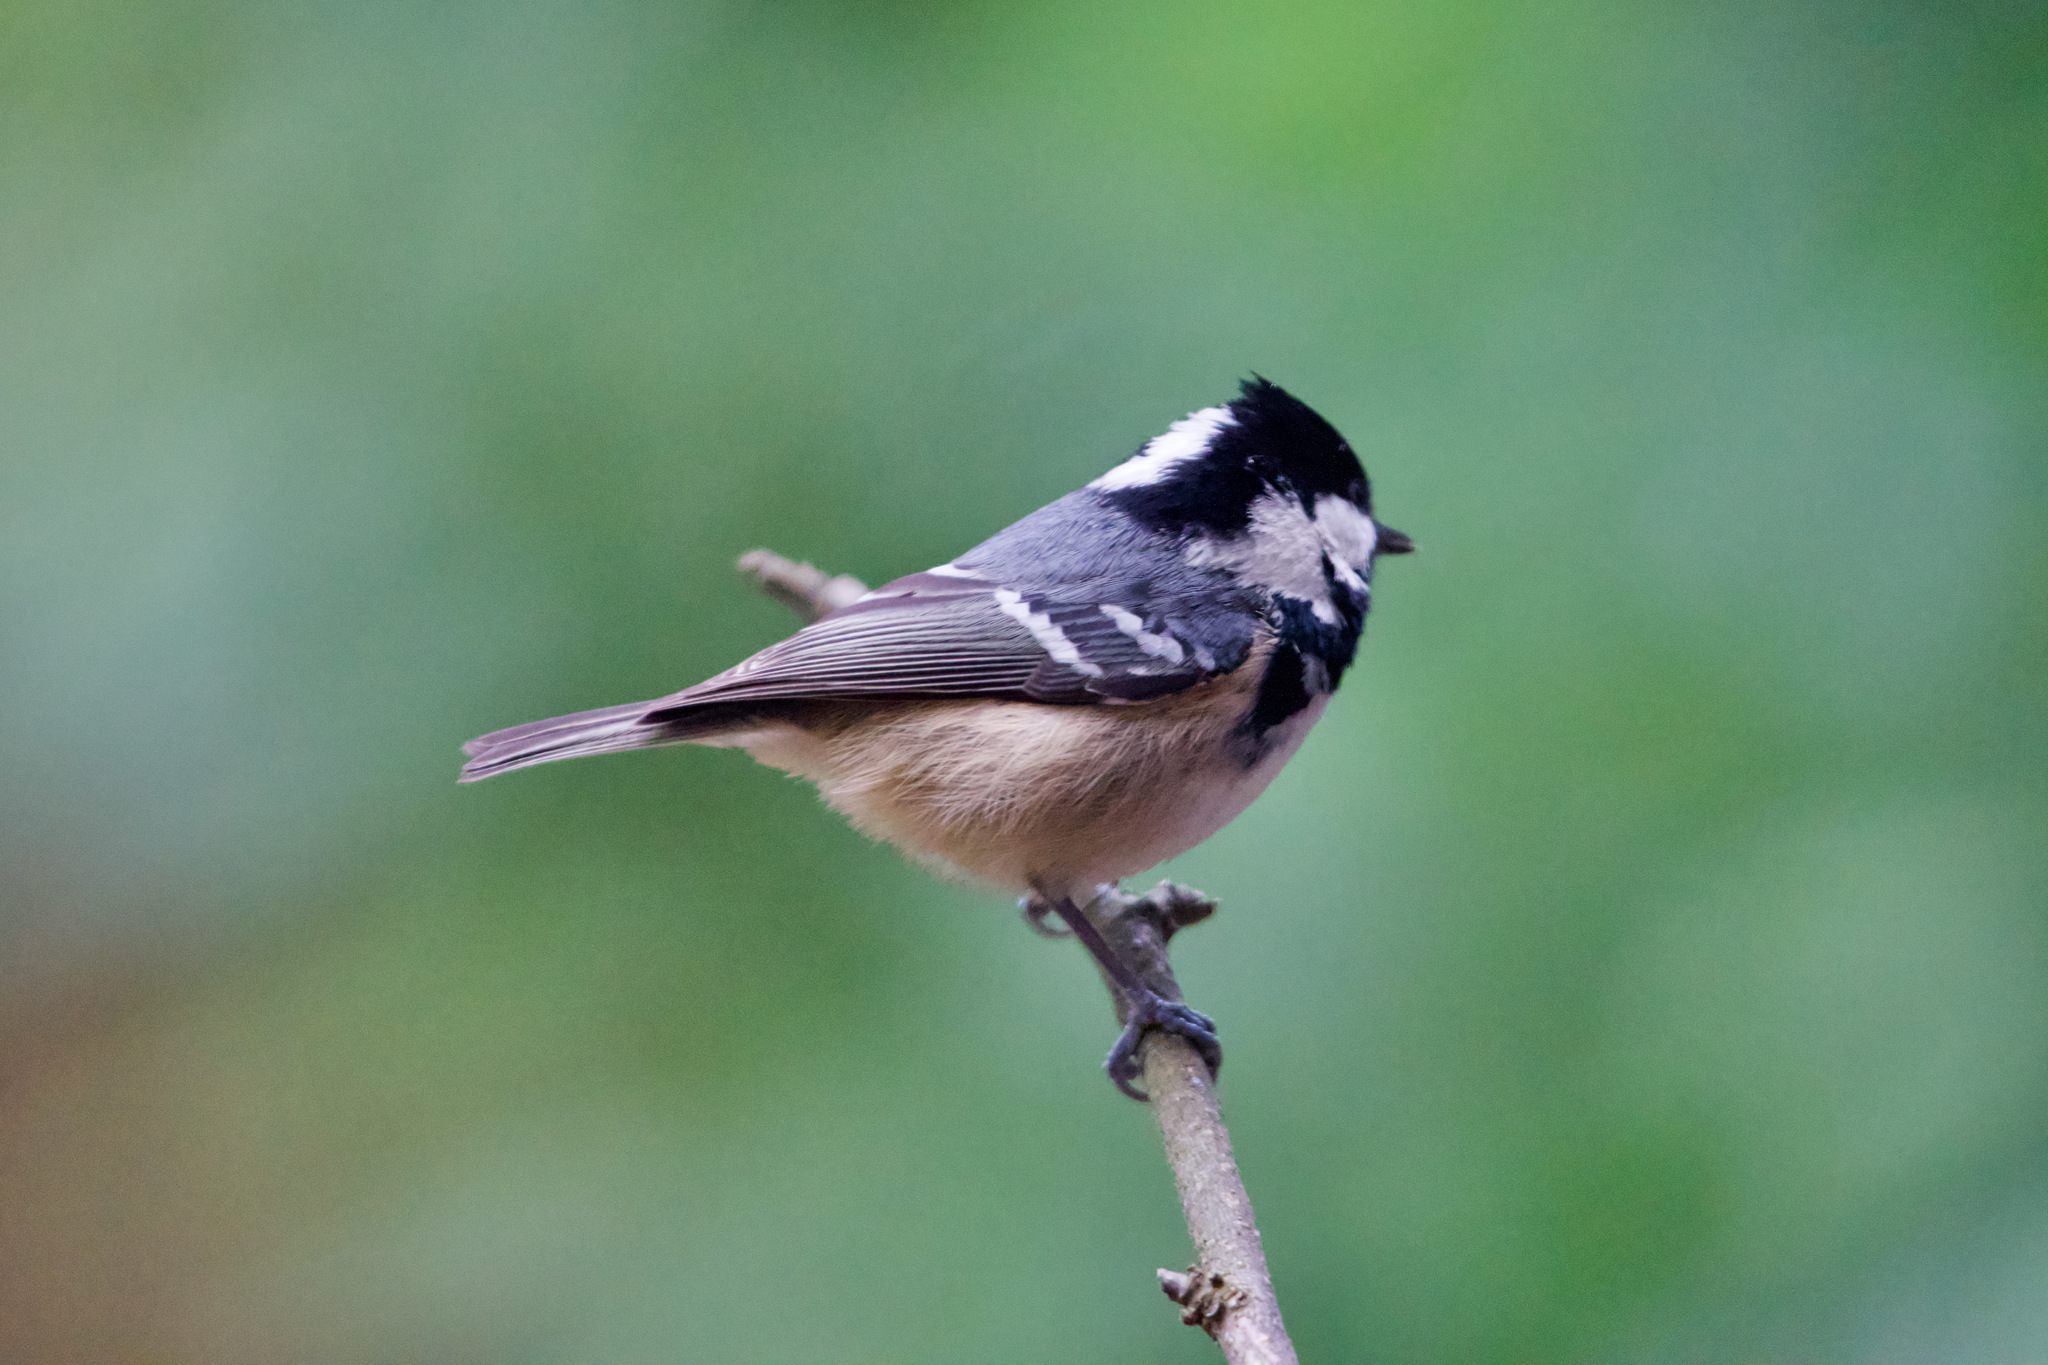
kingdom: Animalia
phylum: Chordata
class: Aves
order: Passeriformes
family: Paridae
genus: Periparus
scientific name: Periparus ater
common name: Coal tit
